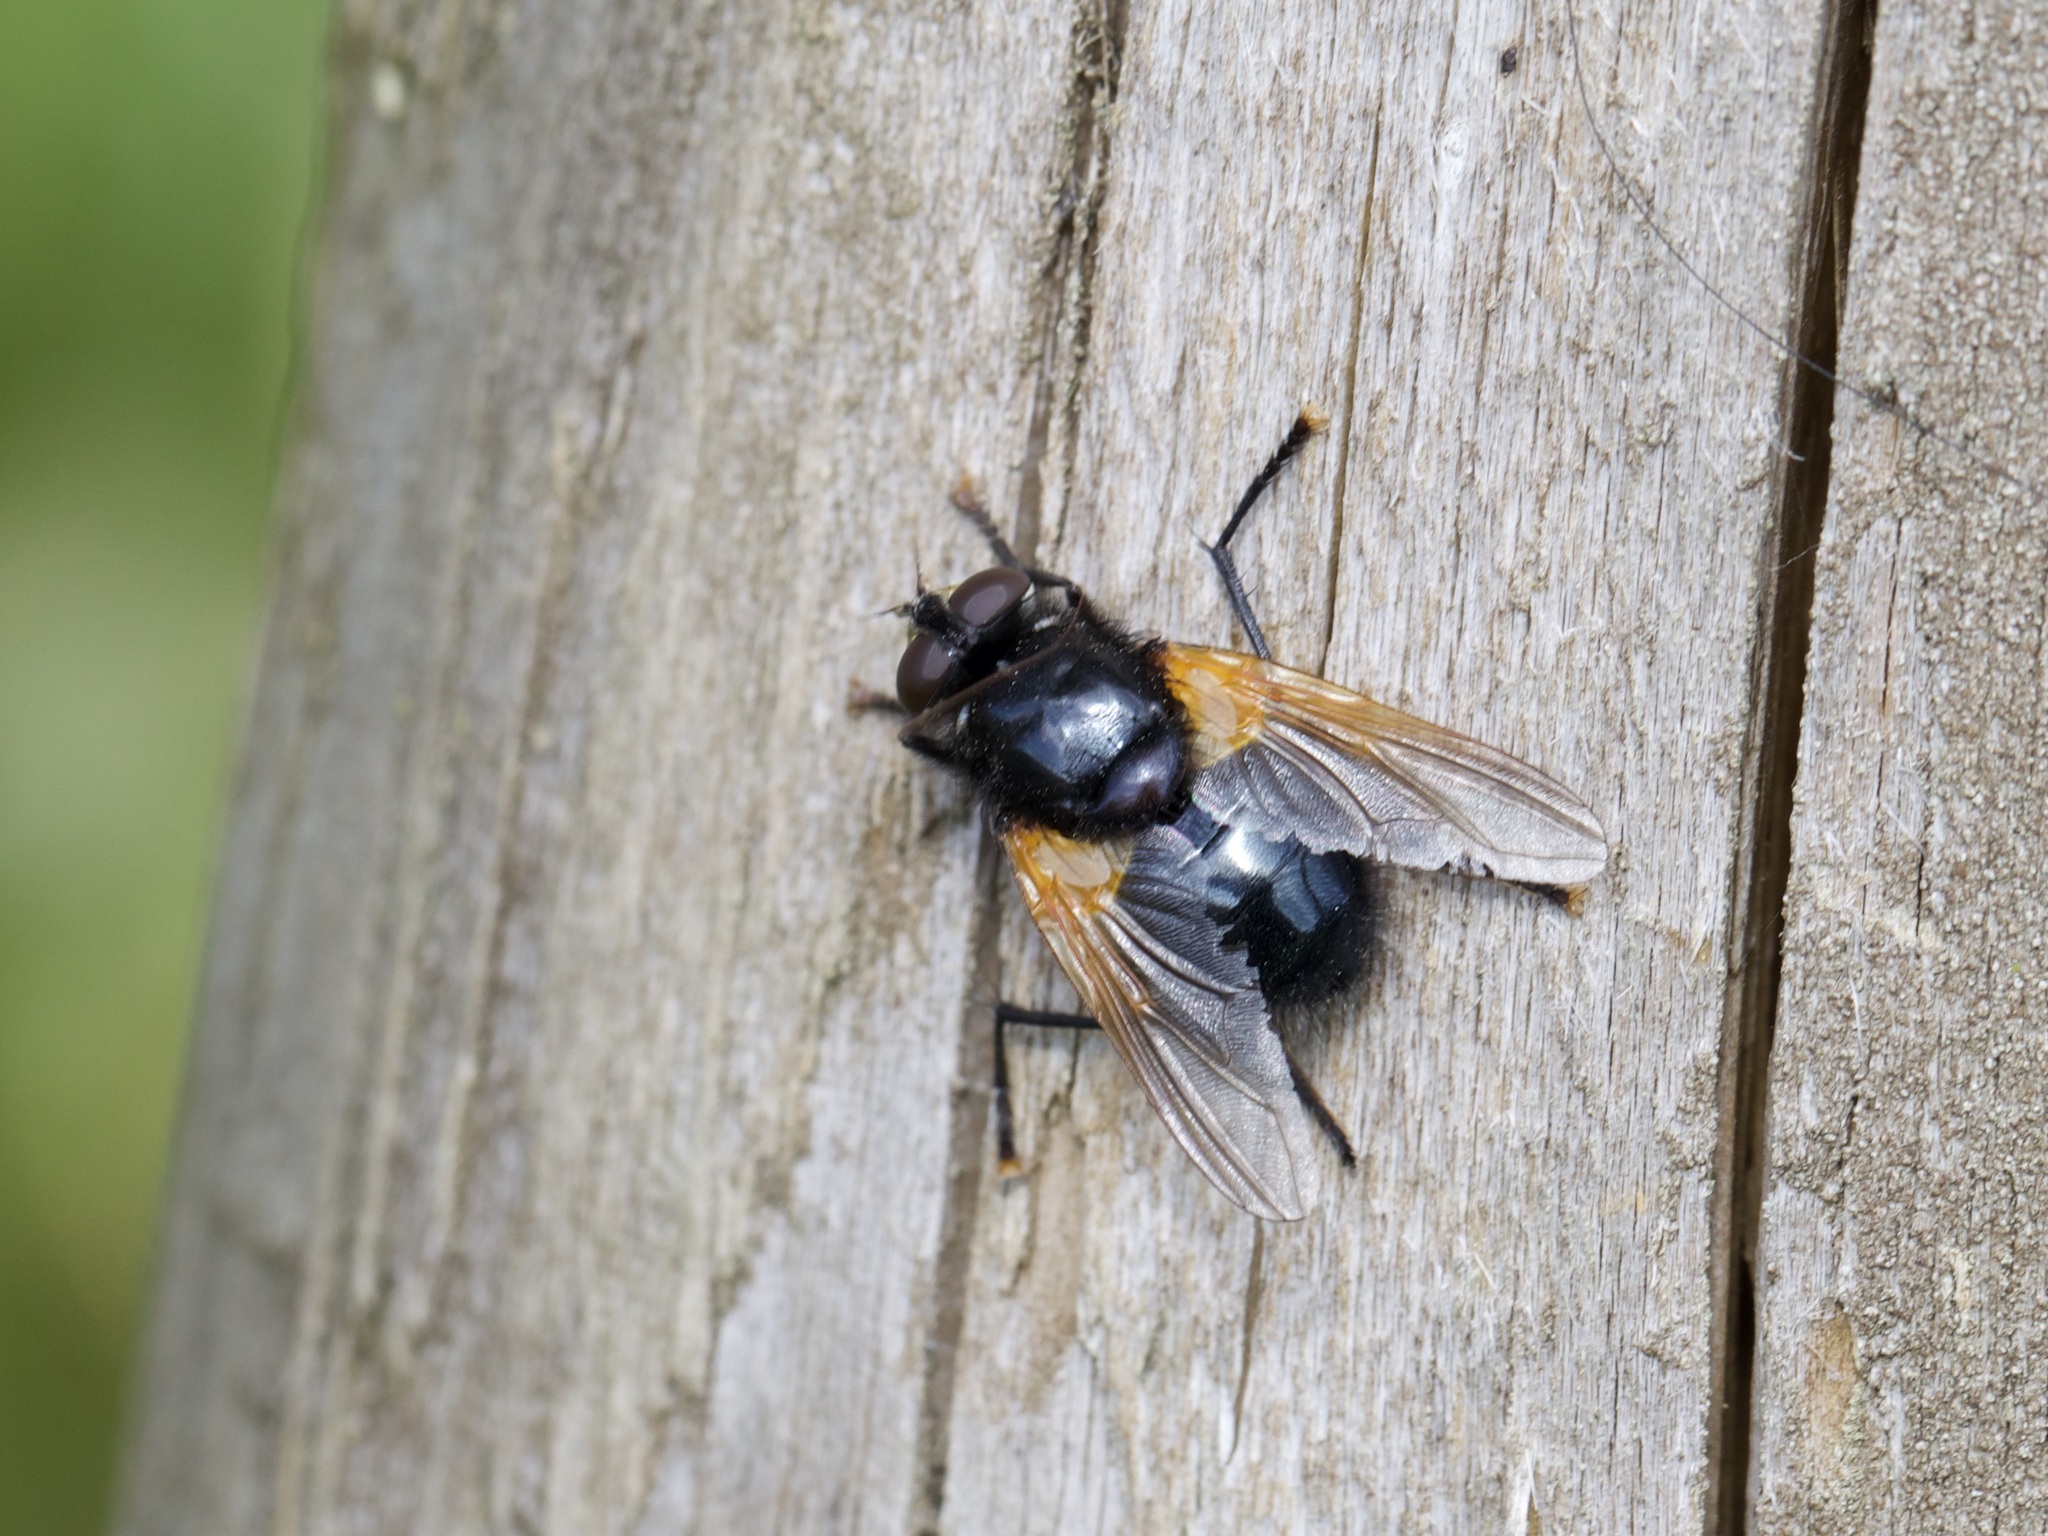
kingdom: Animalia
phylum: Arthropoda
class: Insecta
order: Diptera
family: Muscidae
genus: Mesembrina
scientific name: Mesembrina meridiana
